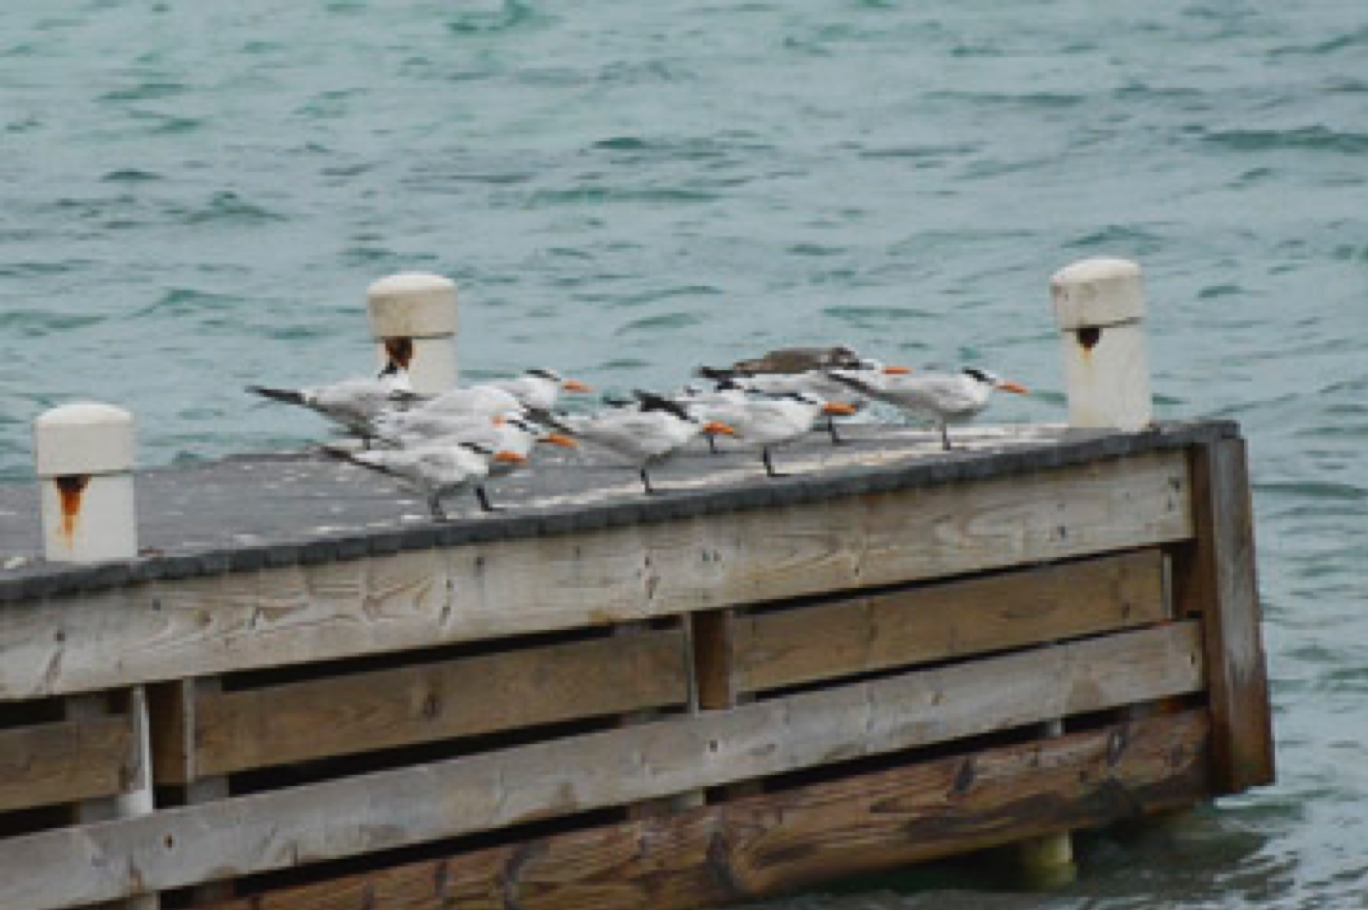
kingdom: Animalia
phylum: Chordata
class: Aves
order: Charadriiformes
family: Laridae
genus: Thalasseus
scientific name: Thalasseus maximus
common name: Royal tern
